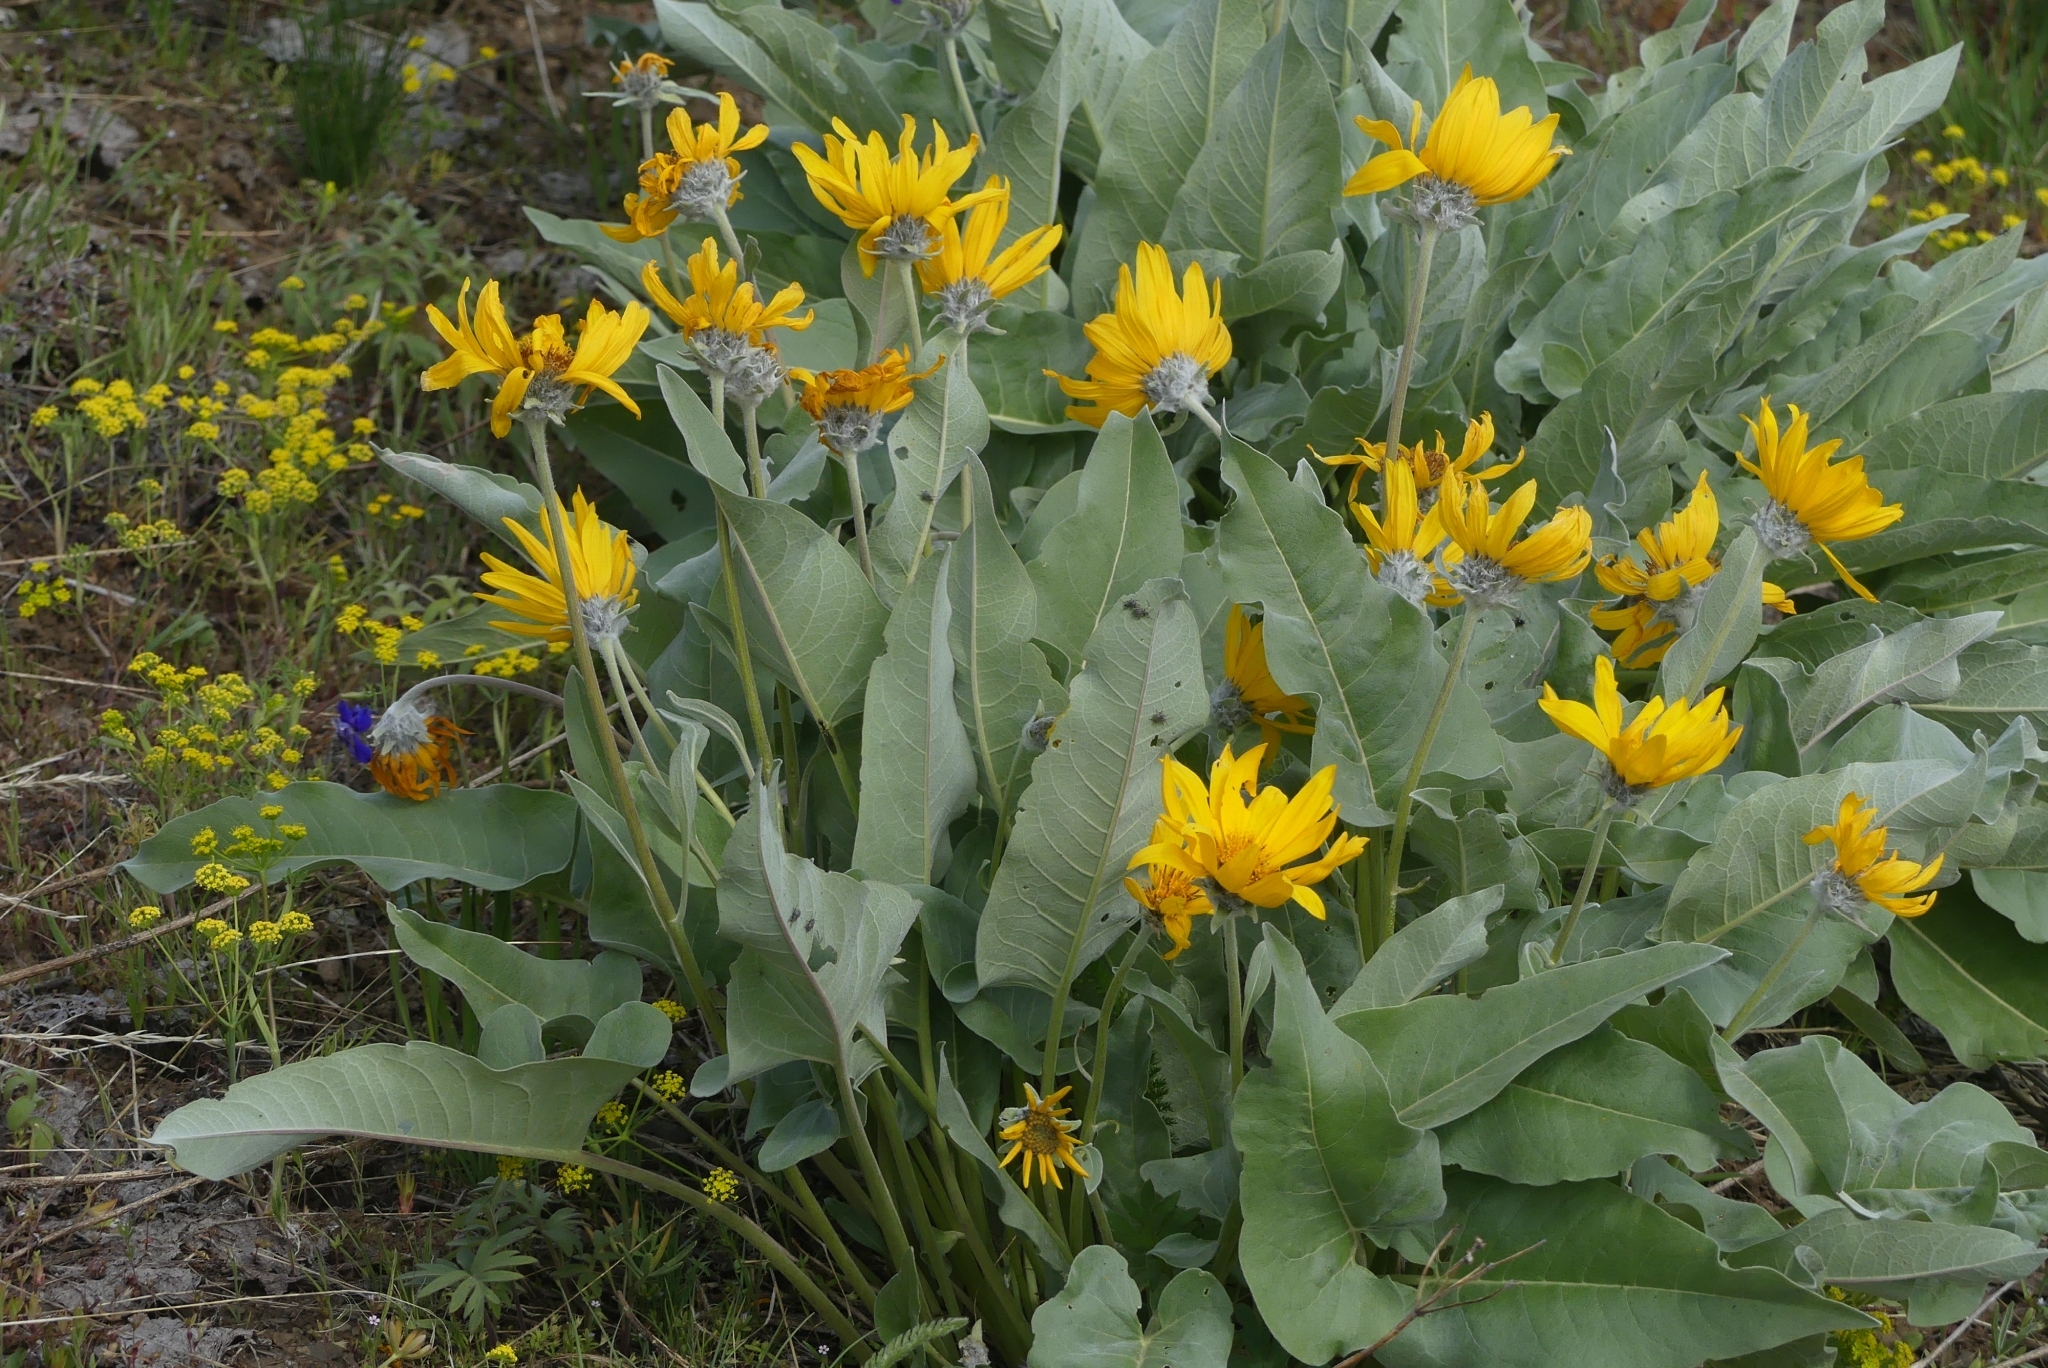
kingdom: Plantae
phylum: Tracheophyta
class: Magnoliopsida
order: Asterales
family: Asteraceae
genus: Wyethia
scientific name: Wyethia sagittata
